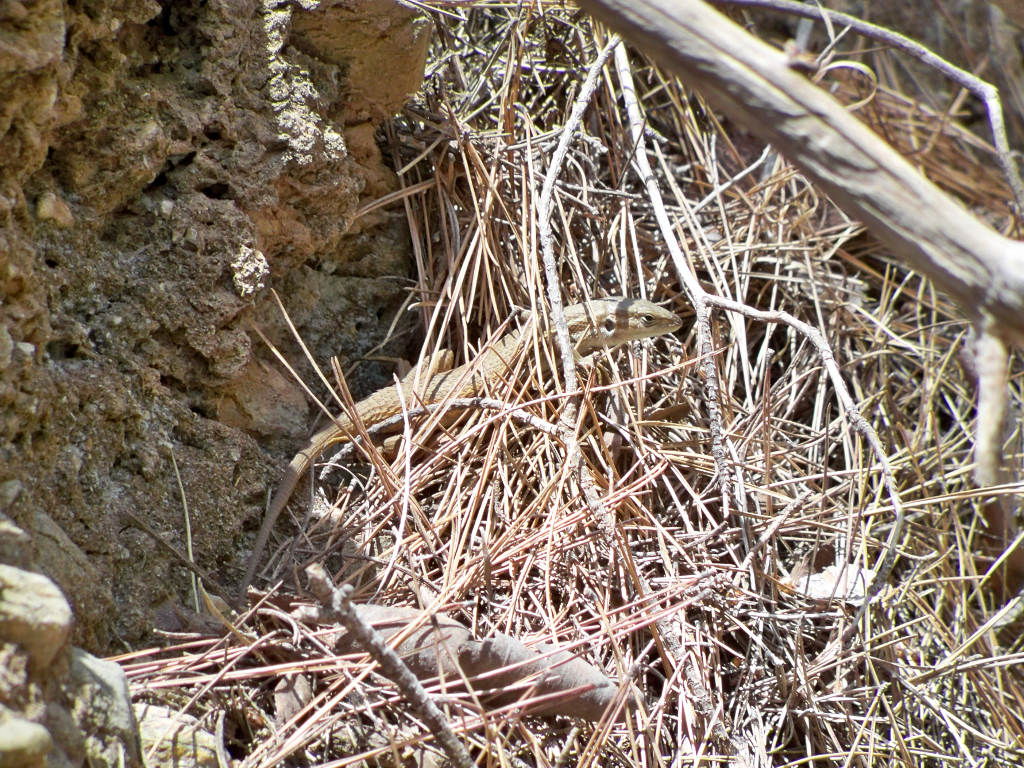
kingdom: Animalia
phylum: Chordata
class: Squamata
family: Lacertidae
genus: Psammodromus
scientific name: Psammodromus algirus
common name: Algerian psammodromus
